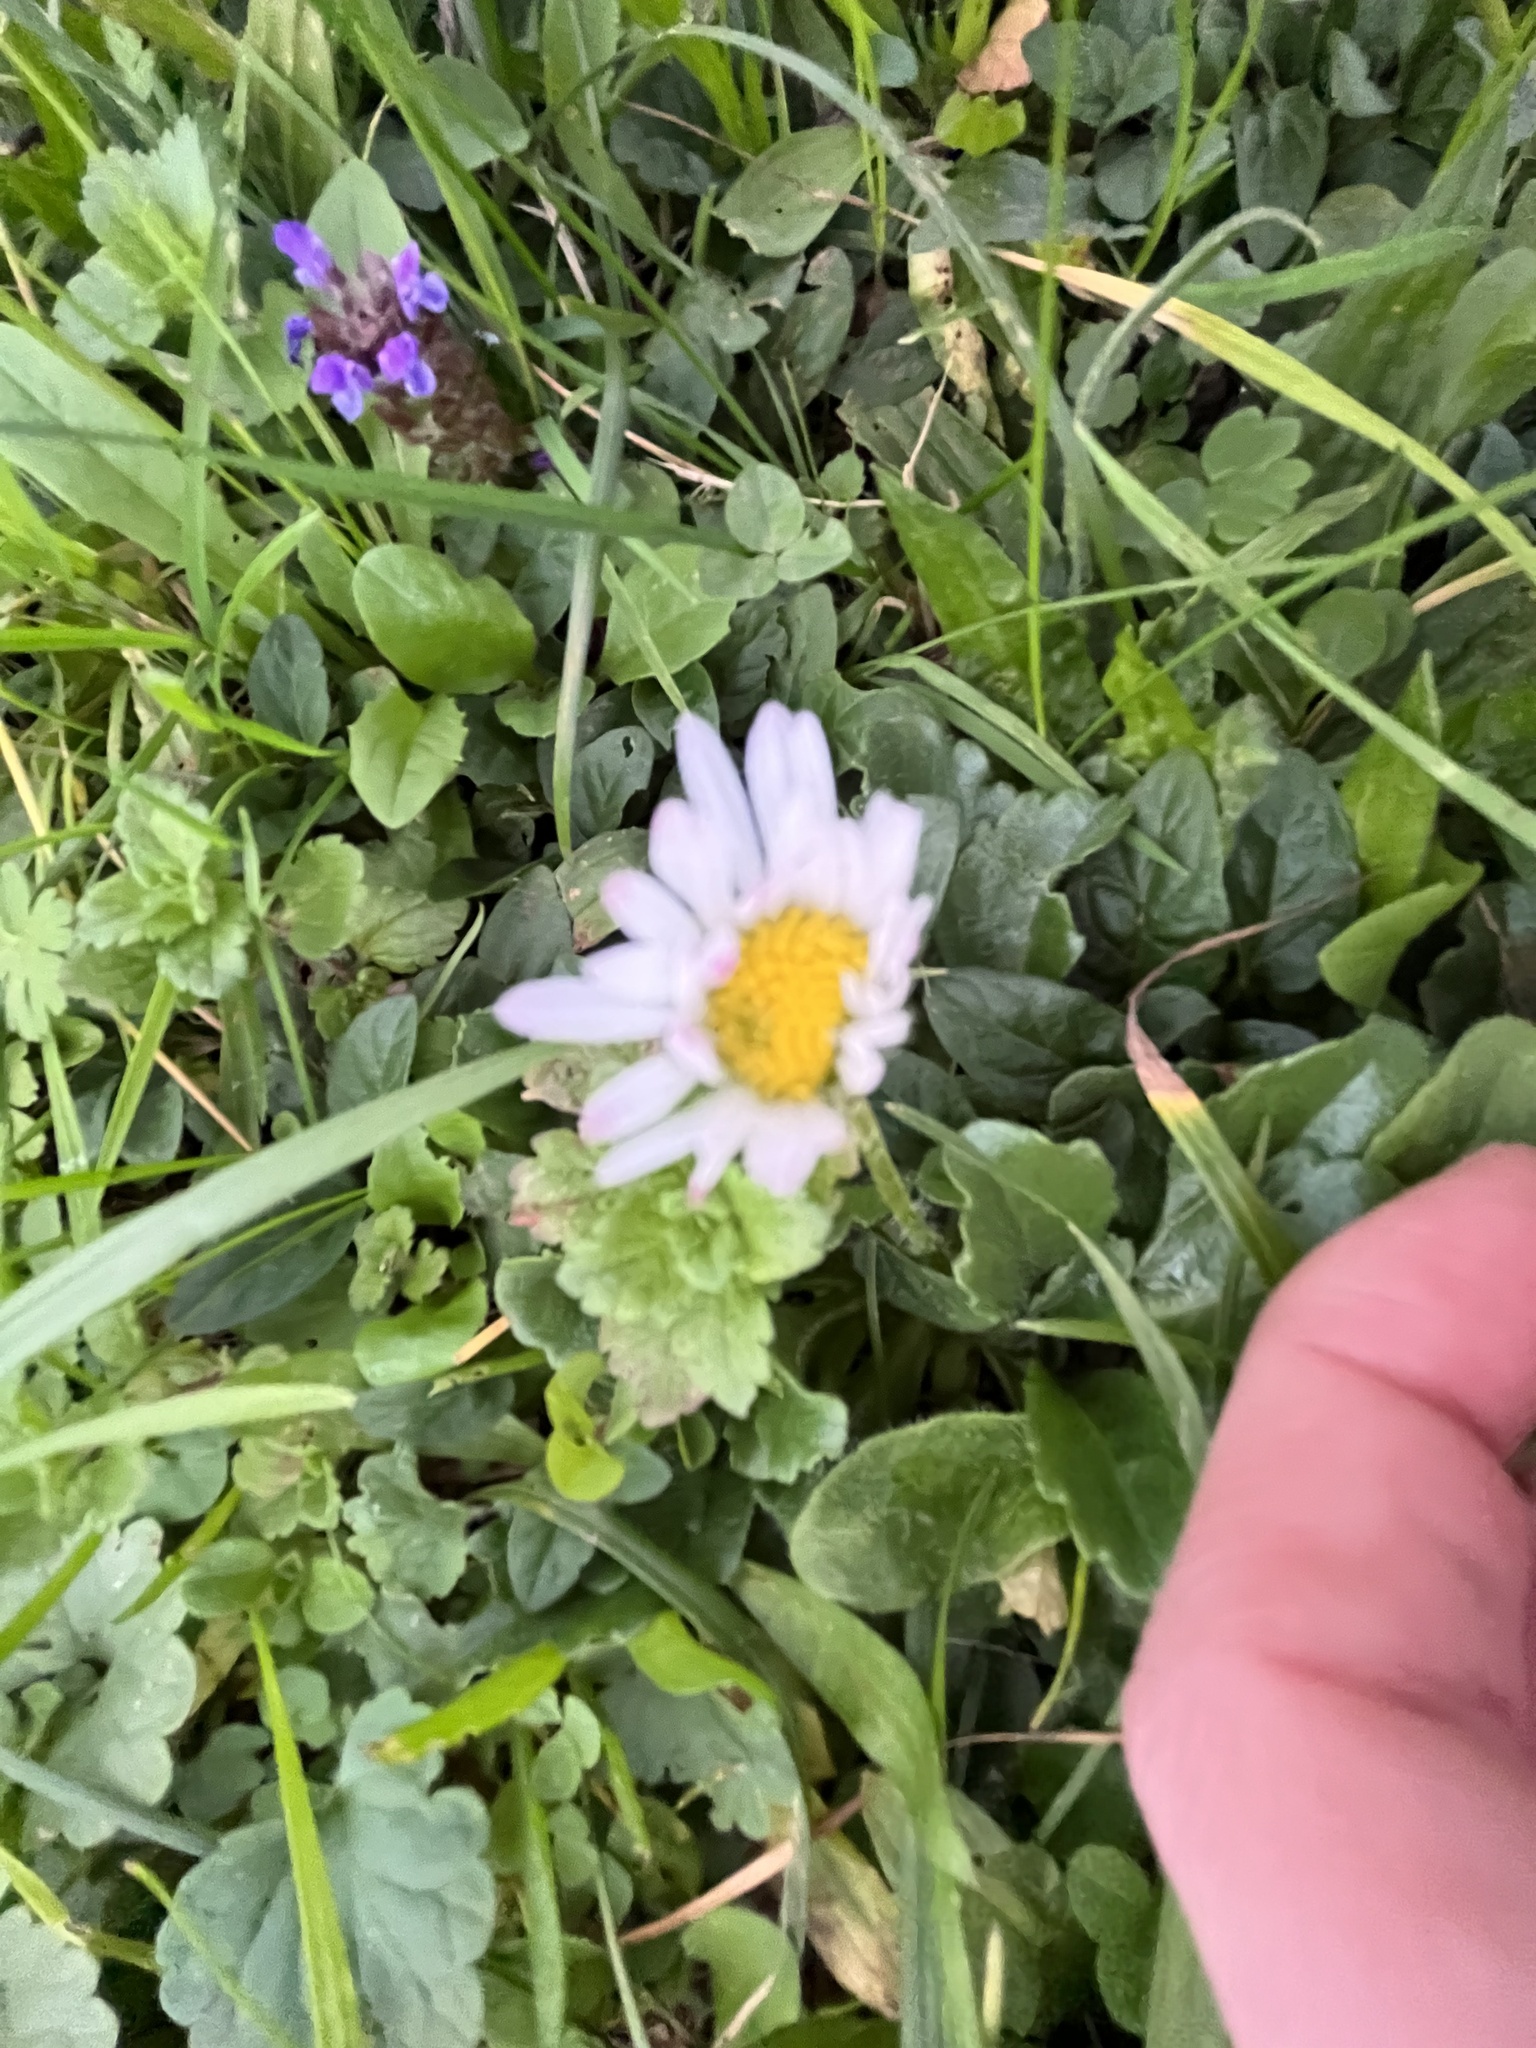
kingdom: Plantae
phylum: Tracheophyta
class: Magnoliopsida
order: Asterales
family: Asteraceae
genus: Bellis
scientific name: Bellis perennis
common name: Lawndaisy
